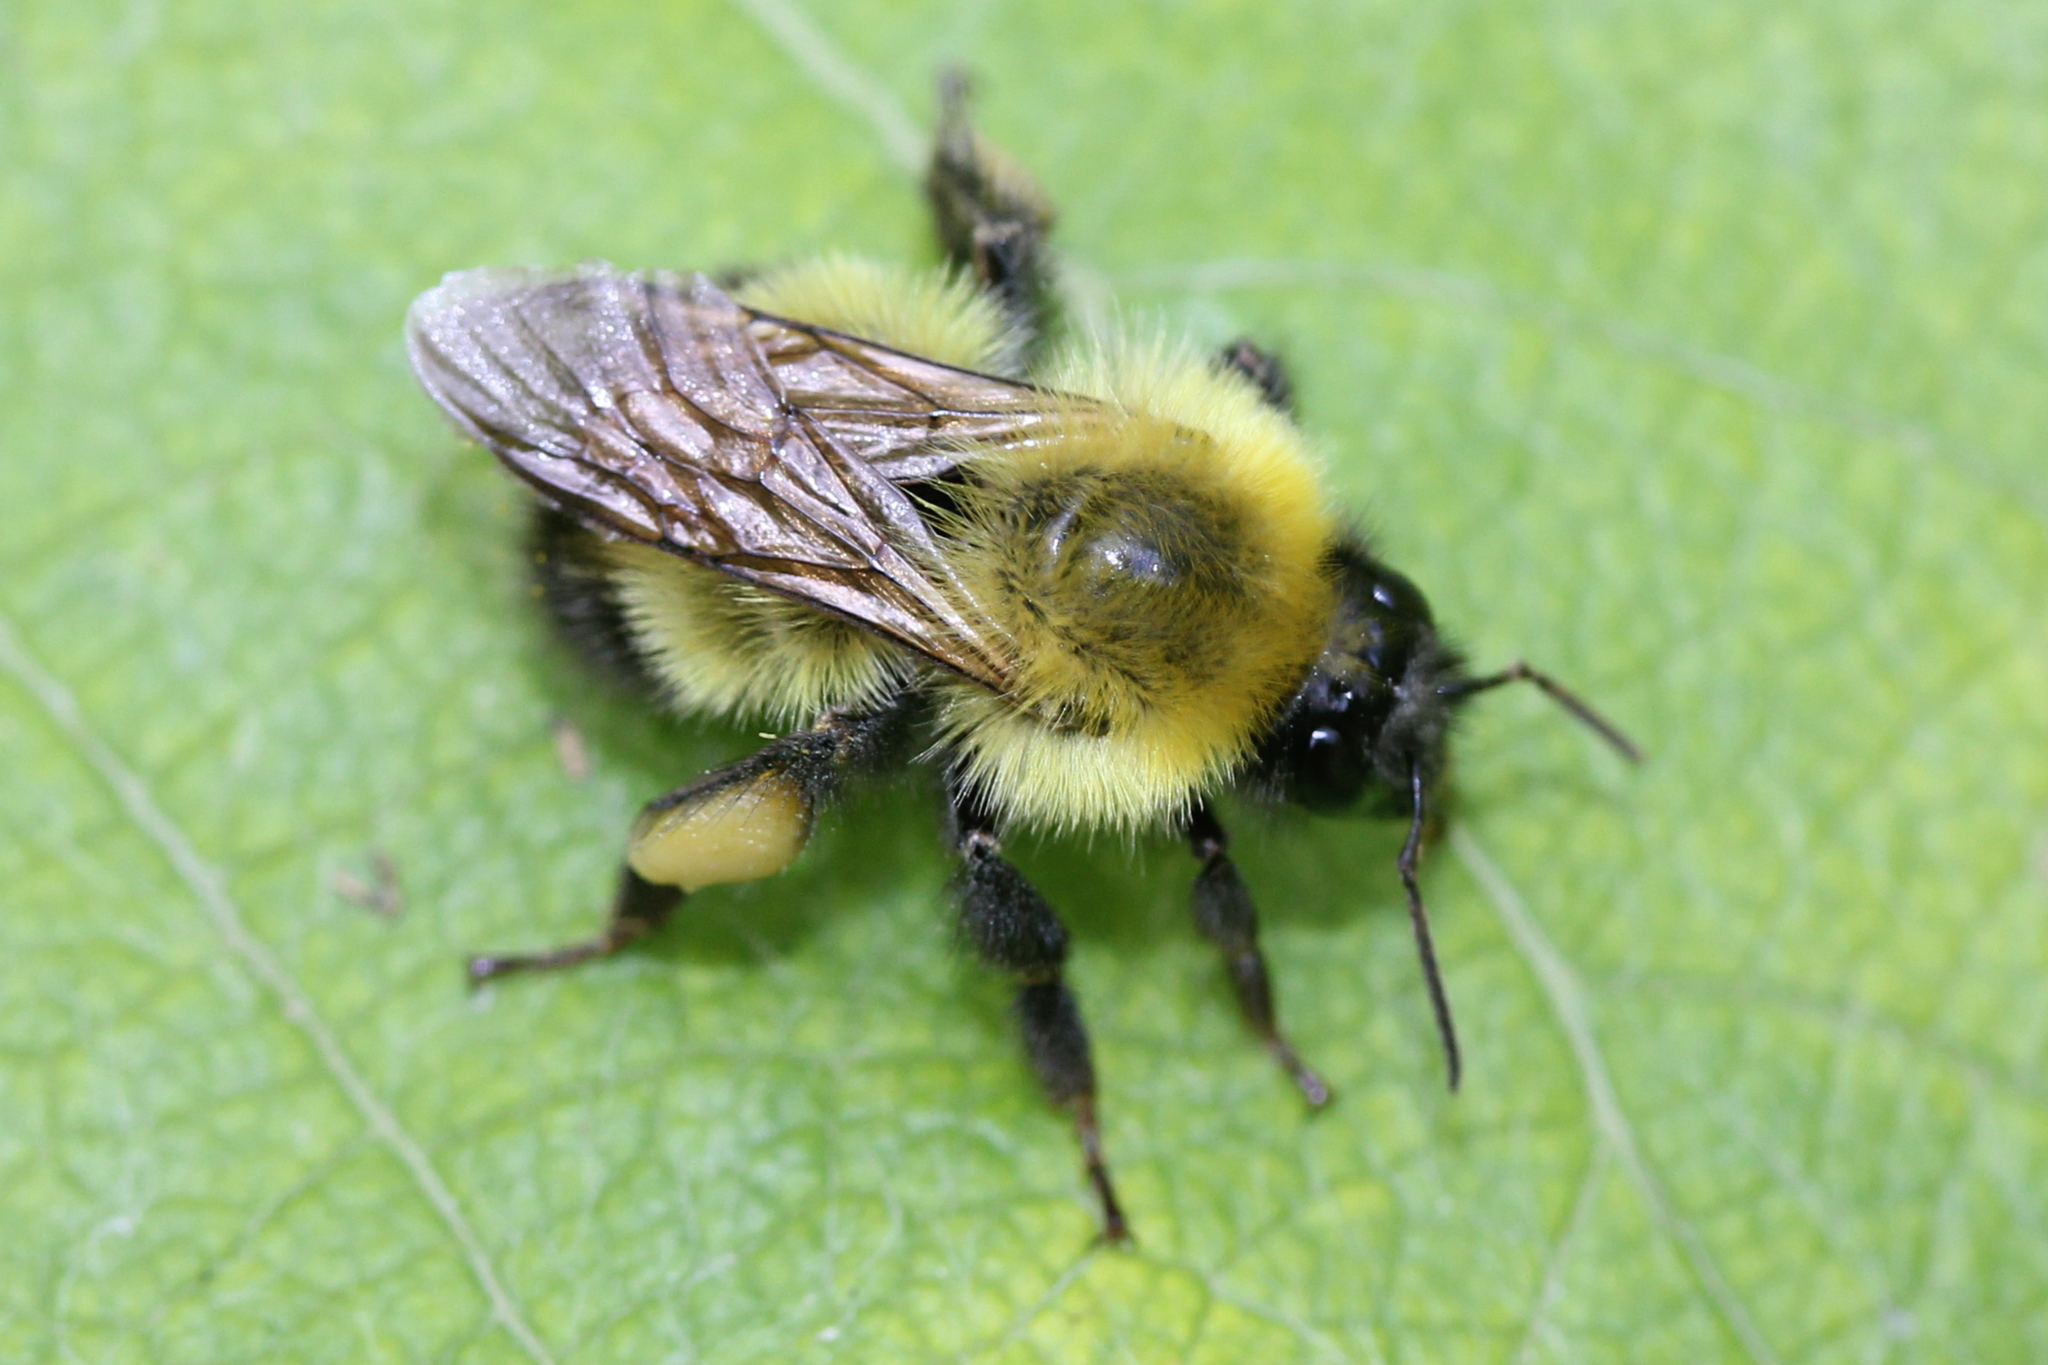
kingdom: Animalia
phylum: Arthropoda
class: Insecta
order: Hymenoptera
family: Apidae
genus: Bombus
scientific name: Bombus perplexus
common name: Confusing bumble bee
